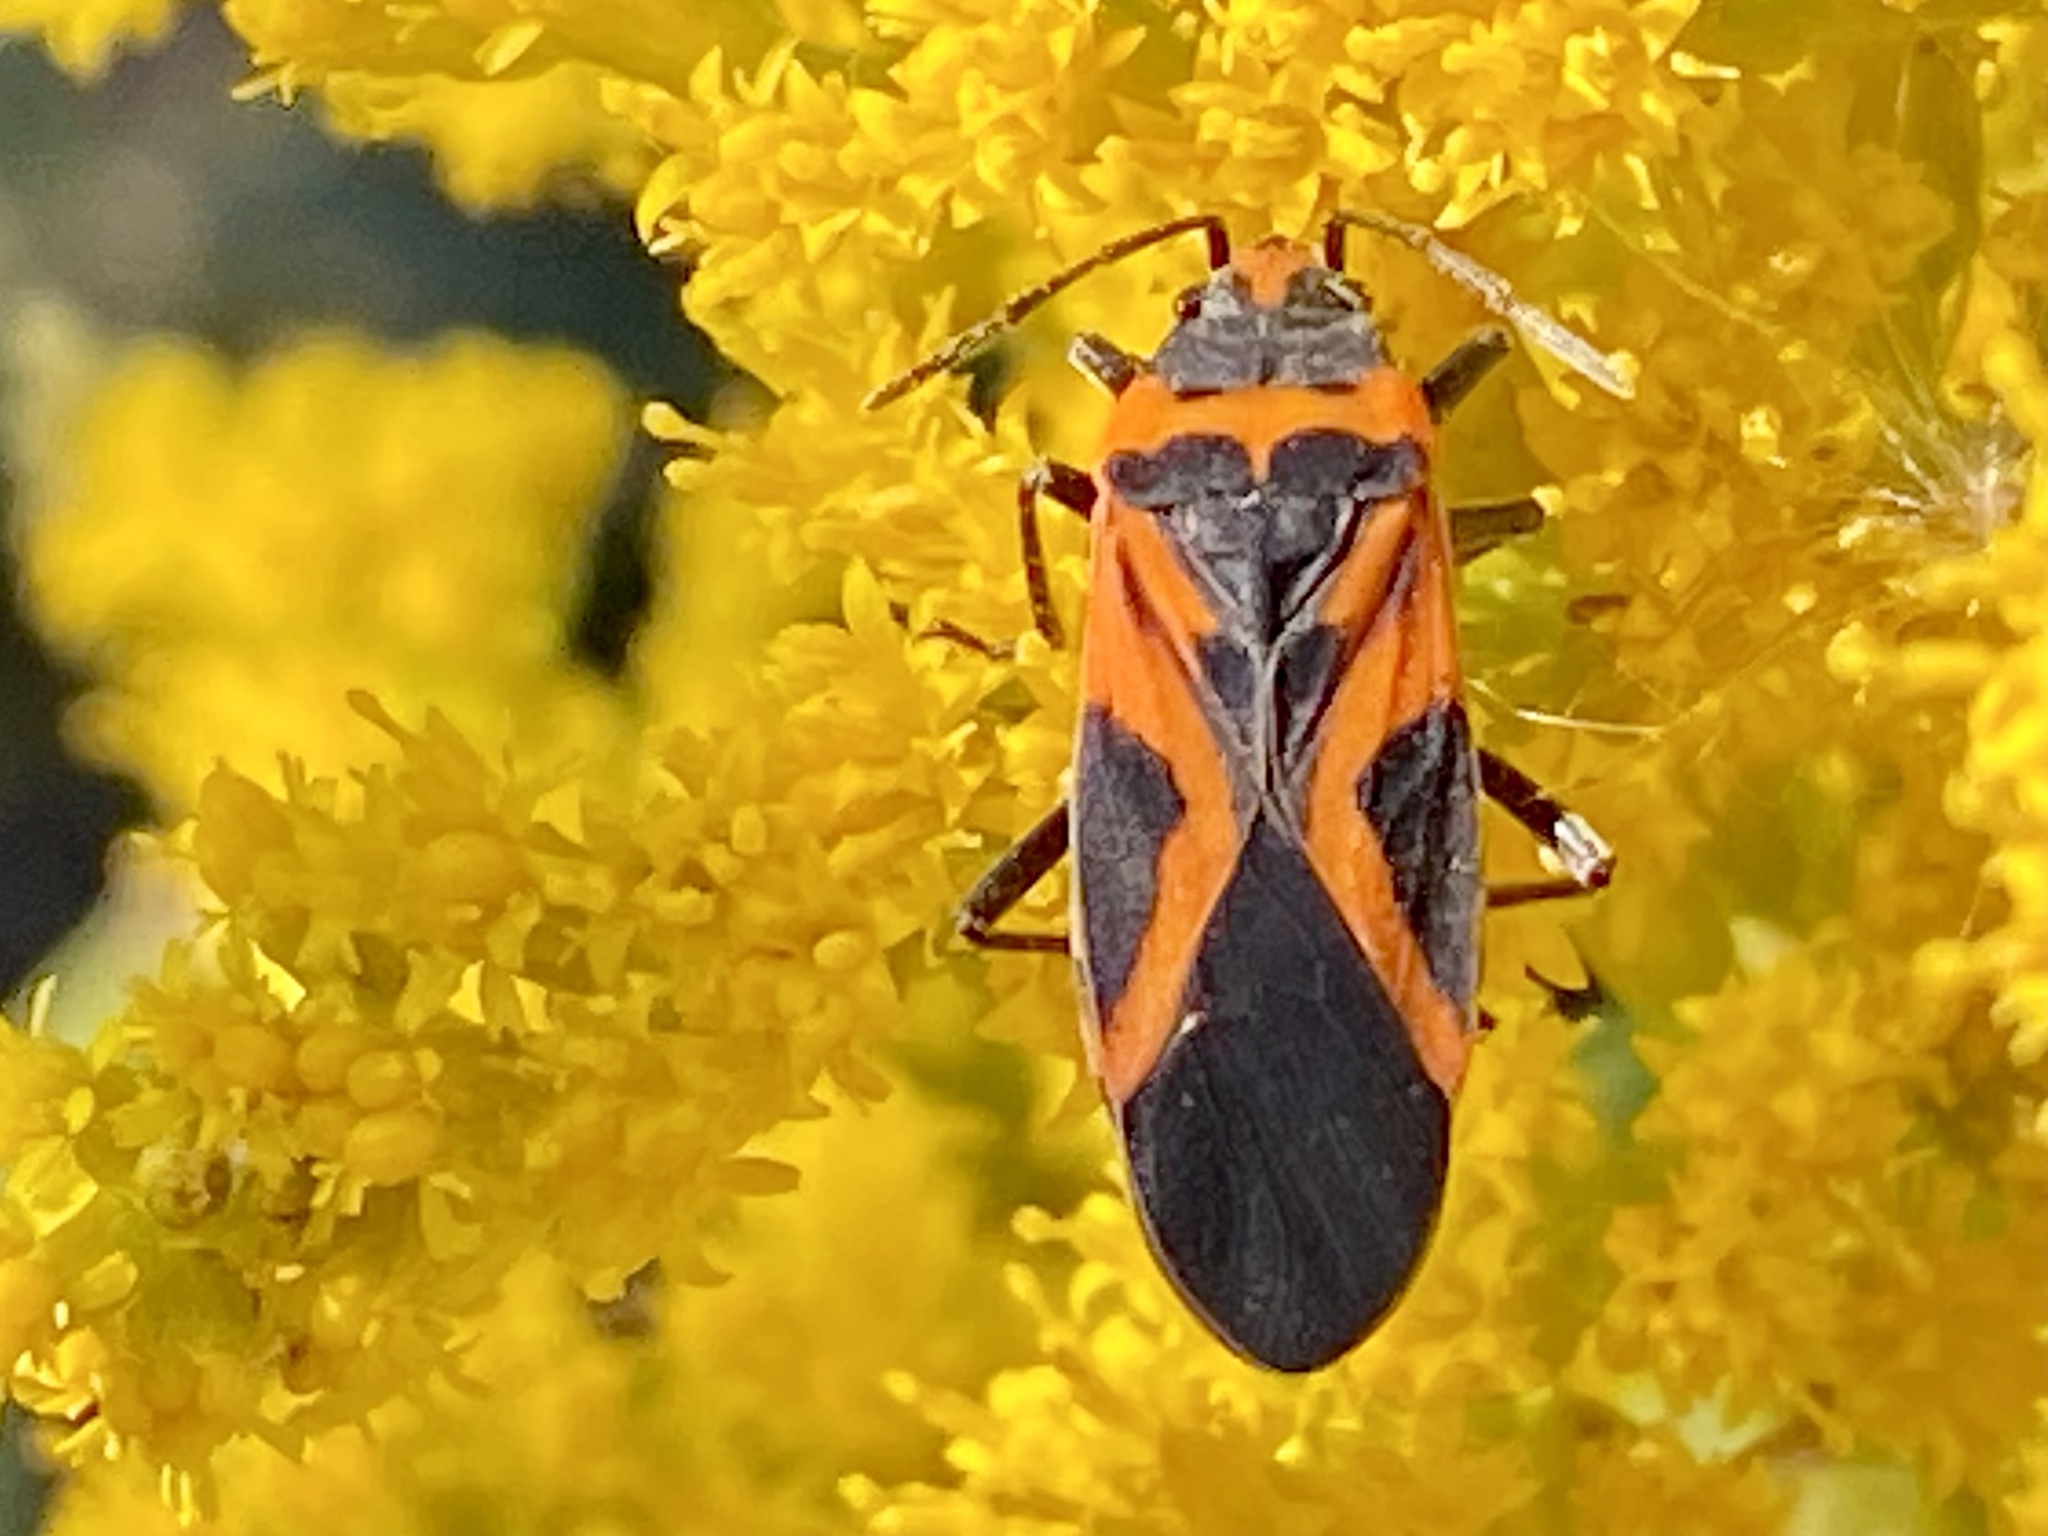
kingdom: Animalia
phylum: Arthropoda
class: Insecta
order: Hemiptera
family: Lygaeidae
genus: Lygaeus
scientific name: Lygaeus turcicus
